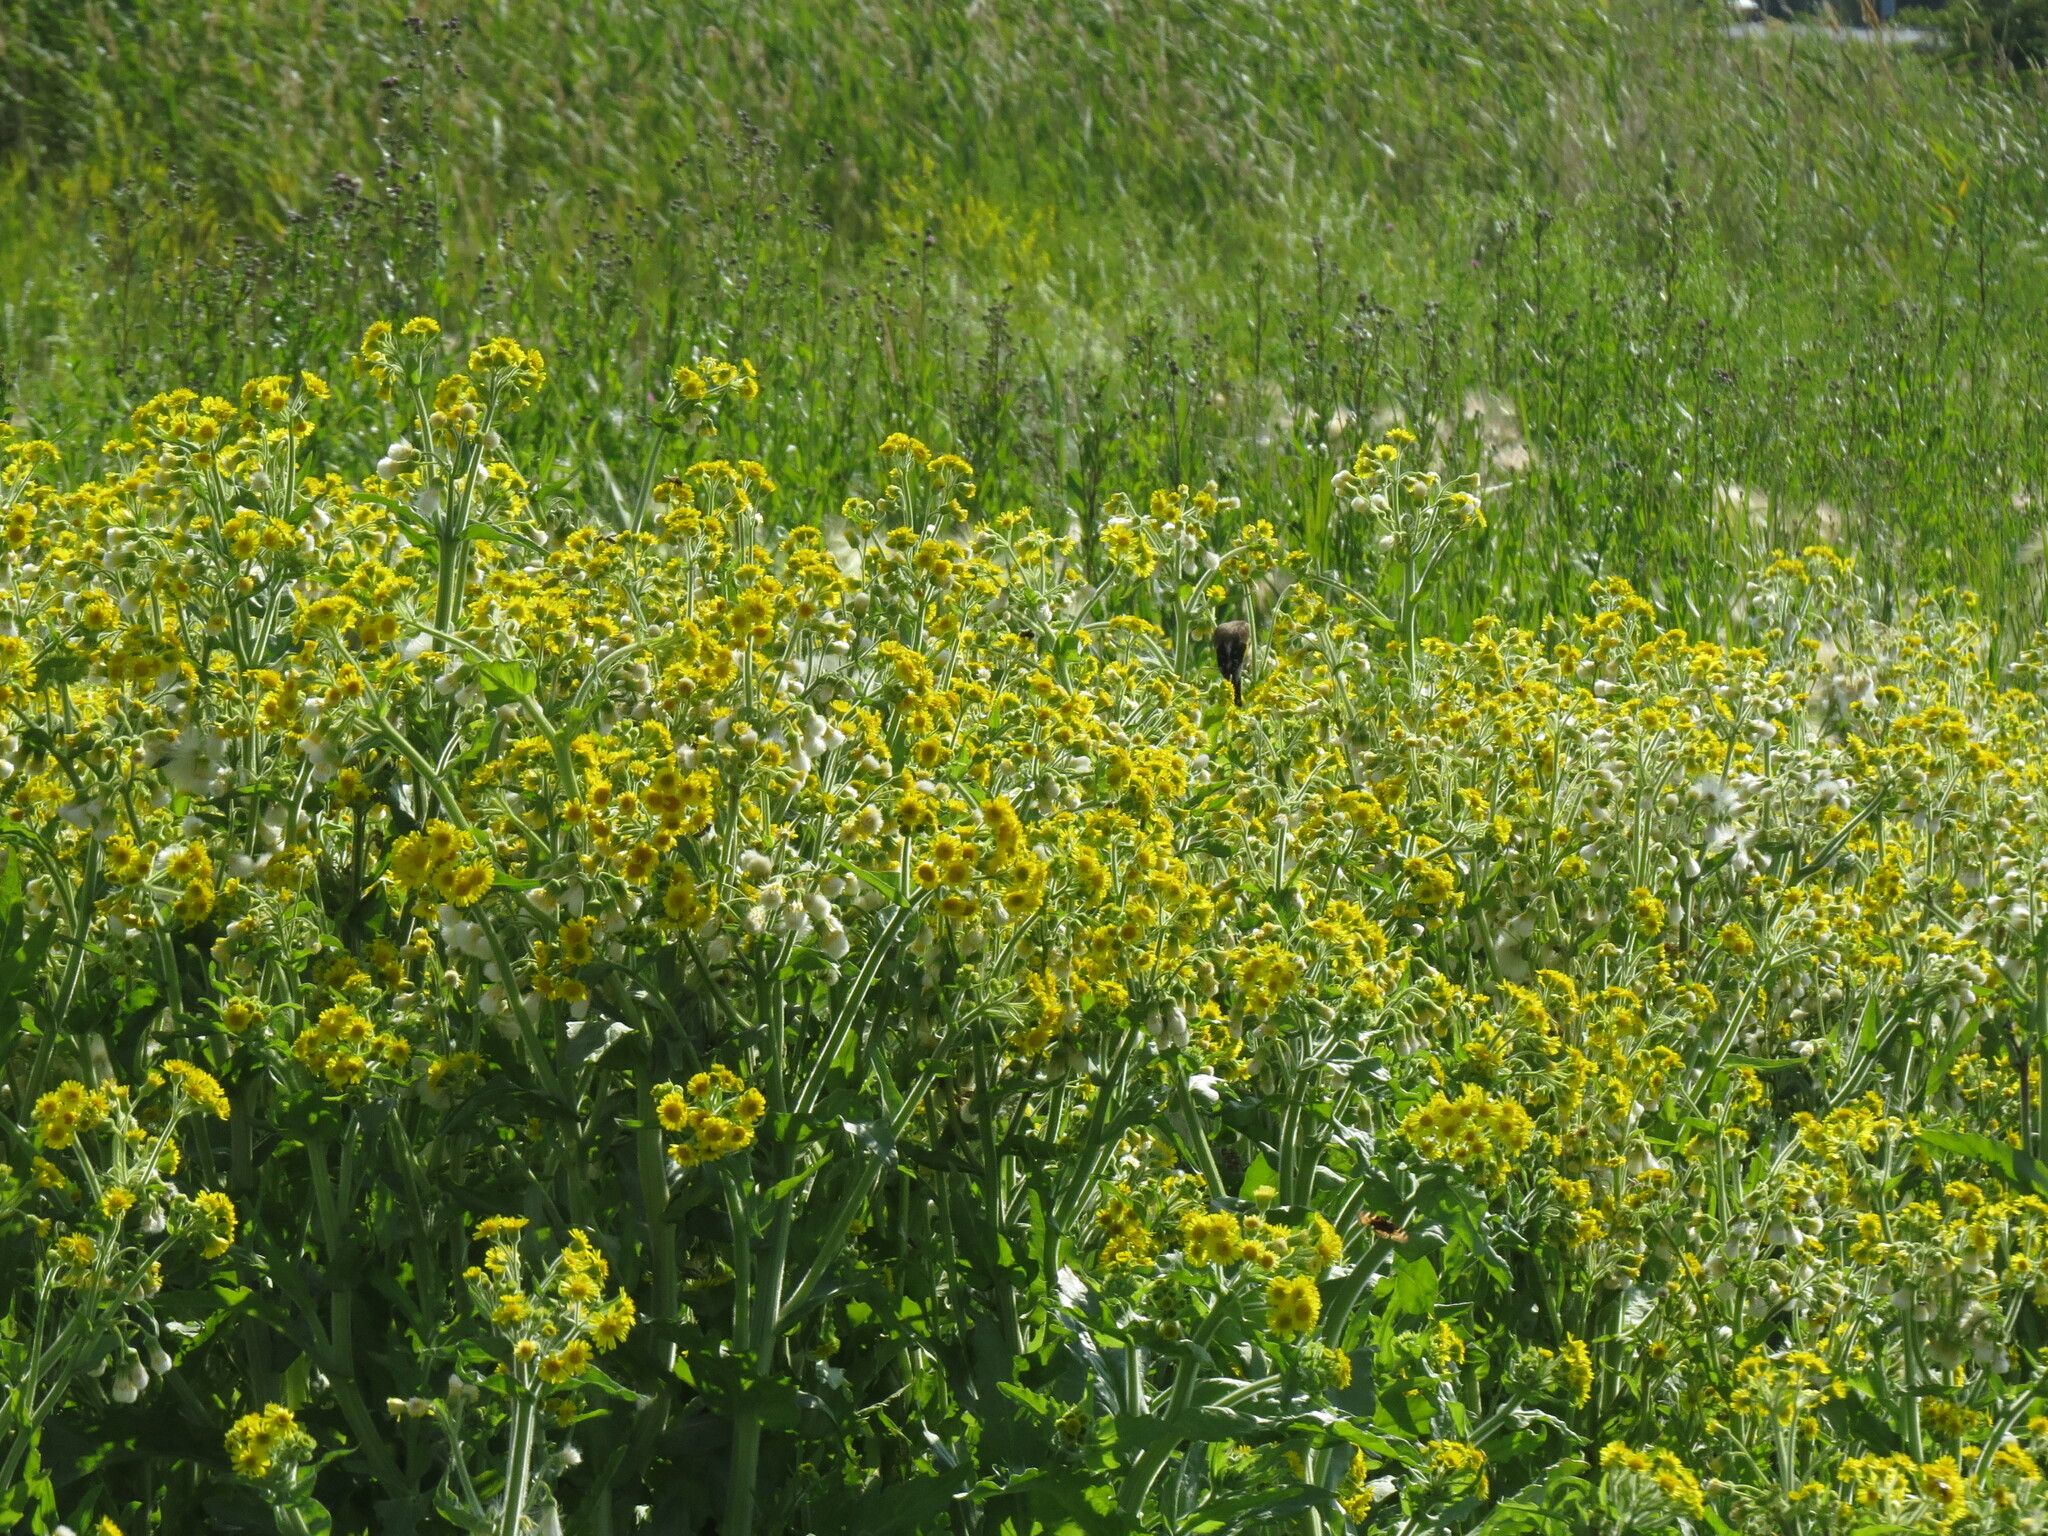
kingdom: Animalia
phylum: Chordata
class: Aves
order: Passeriformes
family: Fringillidae
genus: Carduelis
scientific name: Carduelis carduelis
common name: European goldfinch
